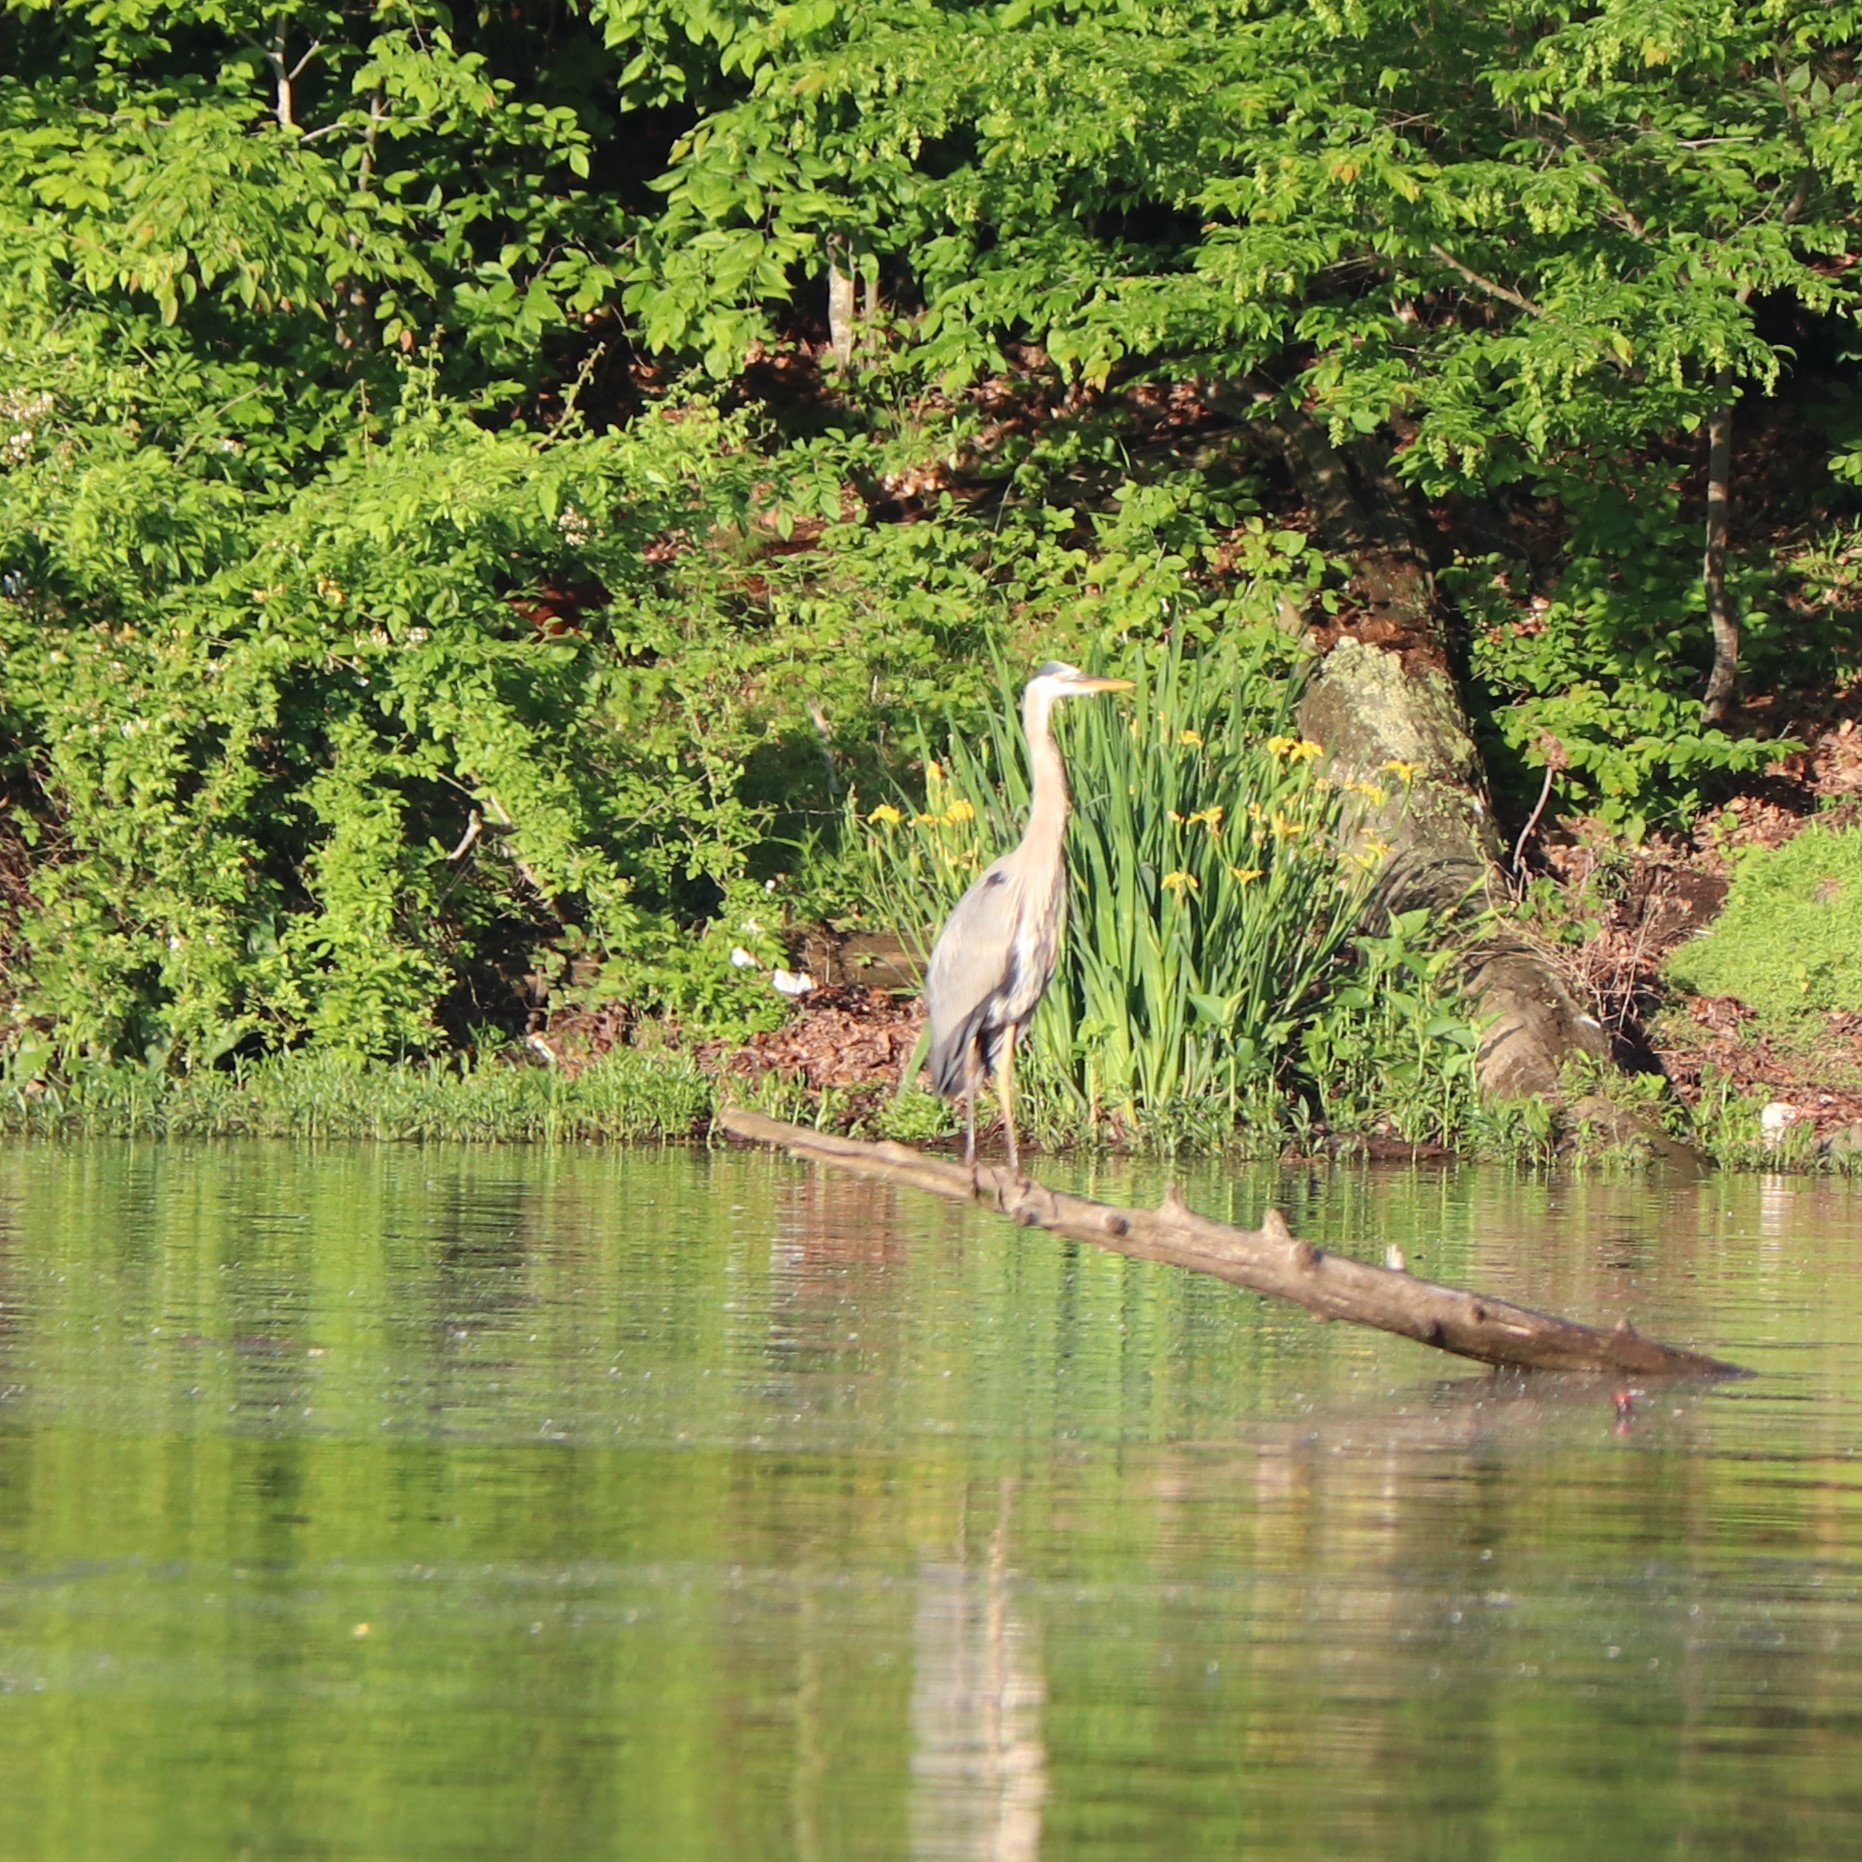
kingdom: Animalia
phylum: Chordata
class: Aves
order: Pelecaniformes
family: Ardeidae
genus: Ardea
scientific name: Ardea herodias
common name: Great blue heron
